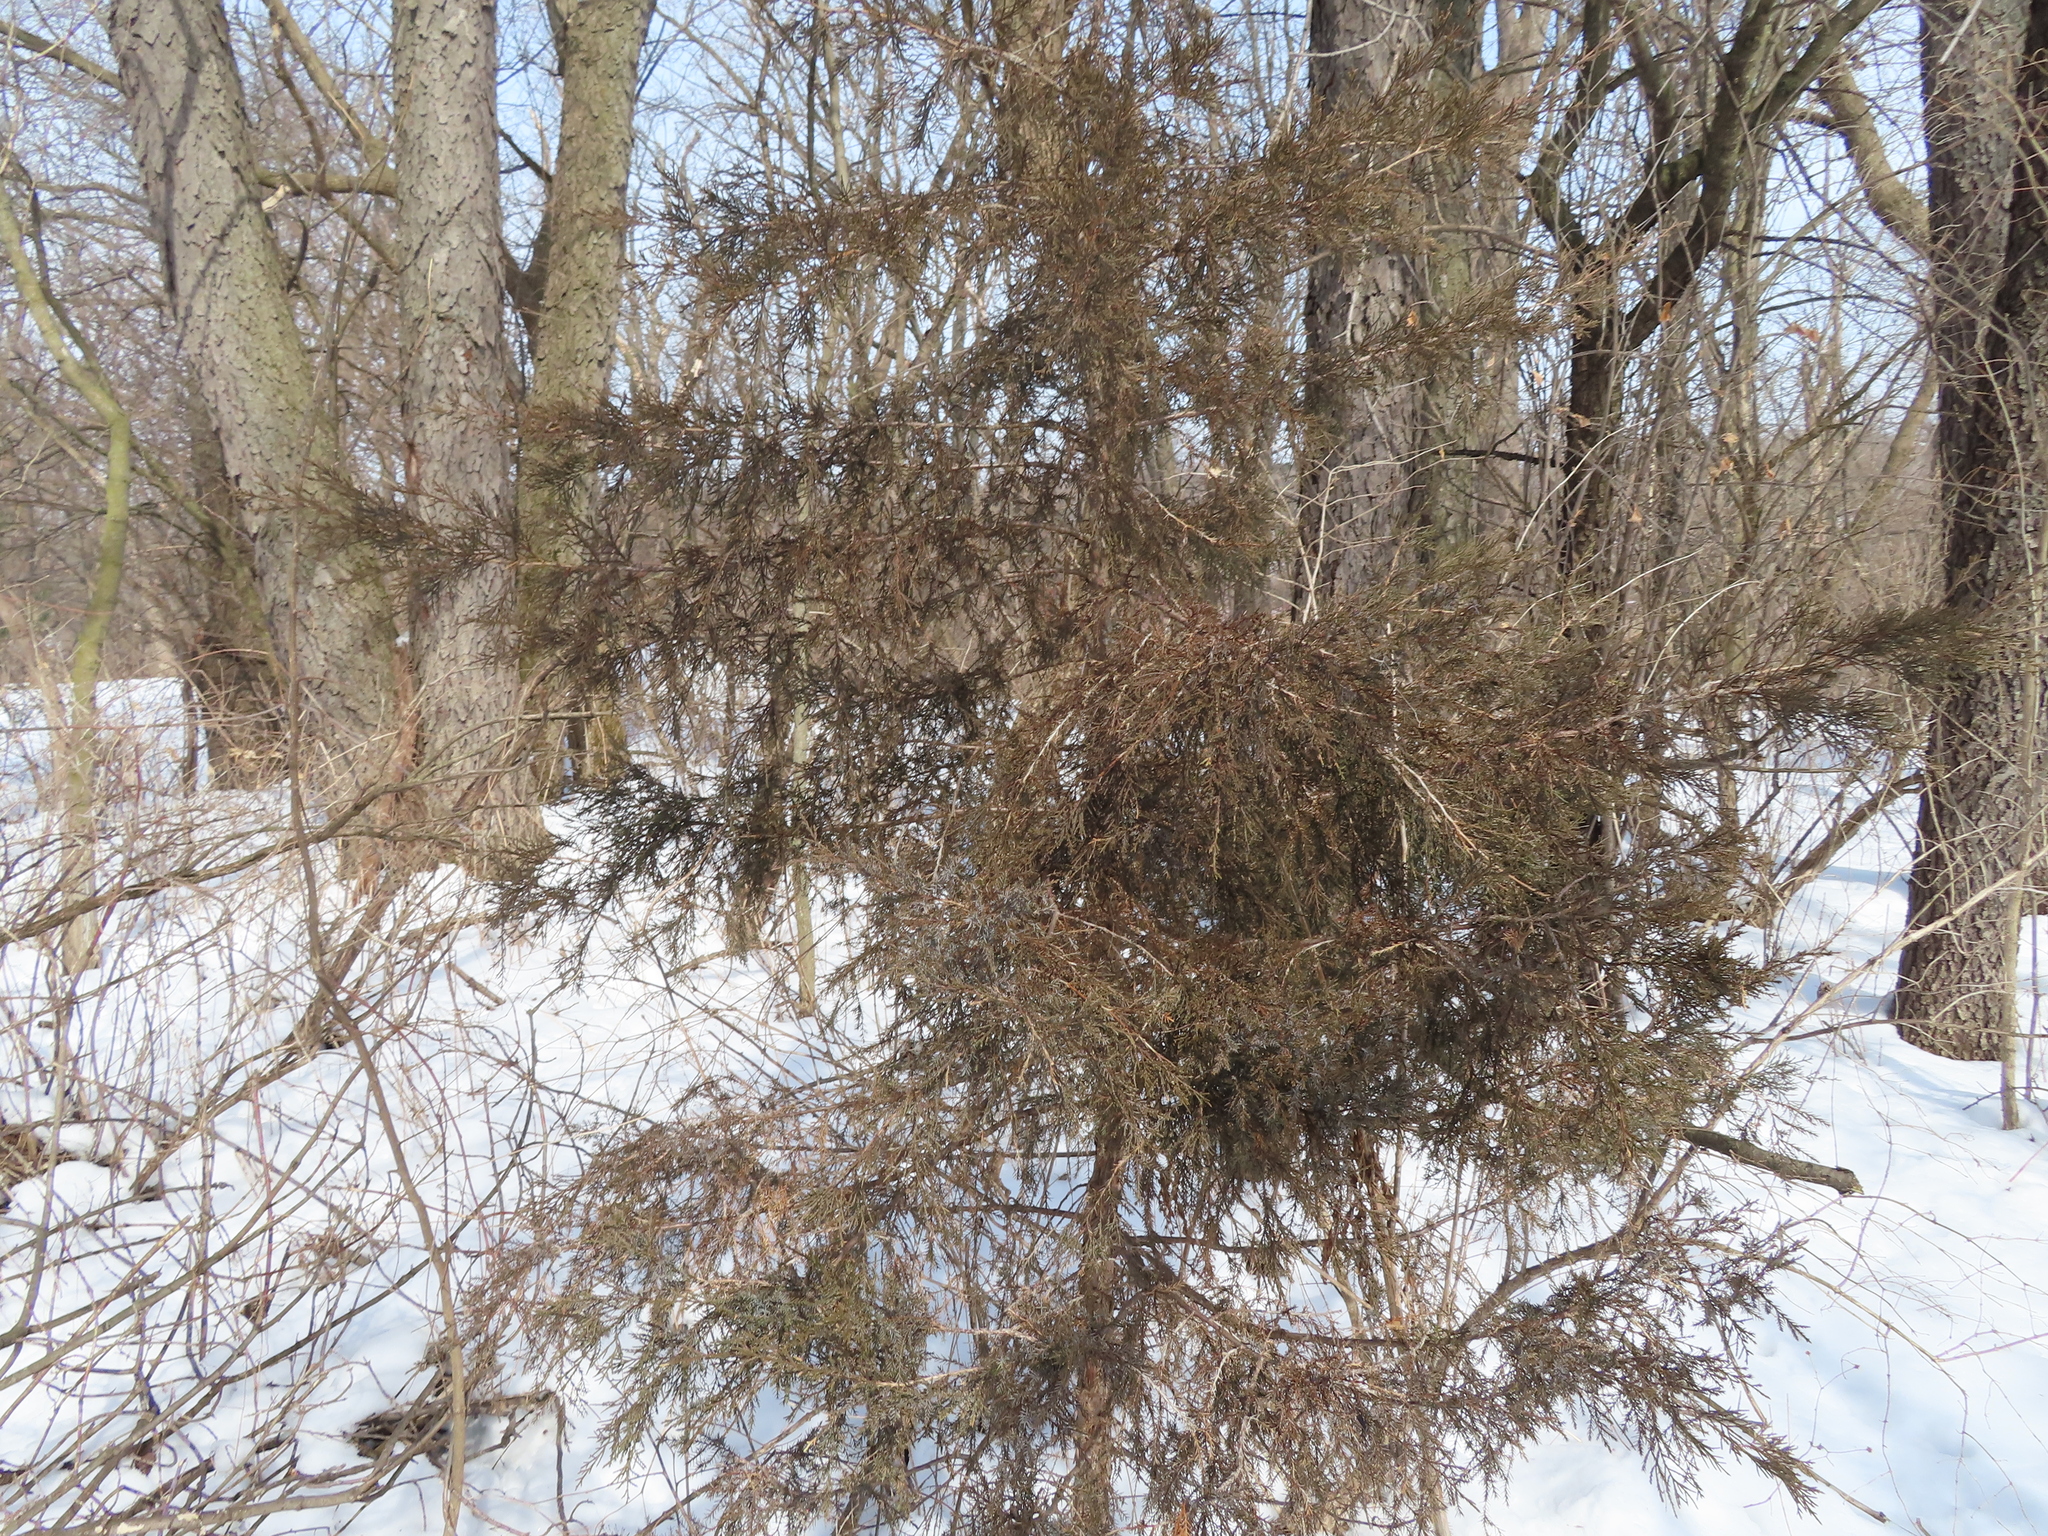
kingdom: Plantae
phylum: Tracheophyta
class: Pinopsida
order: Pinales
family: Cupressaceae
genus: Juniperus
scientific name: Juniperus virginiana
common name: Red juniper
